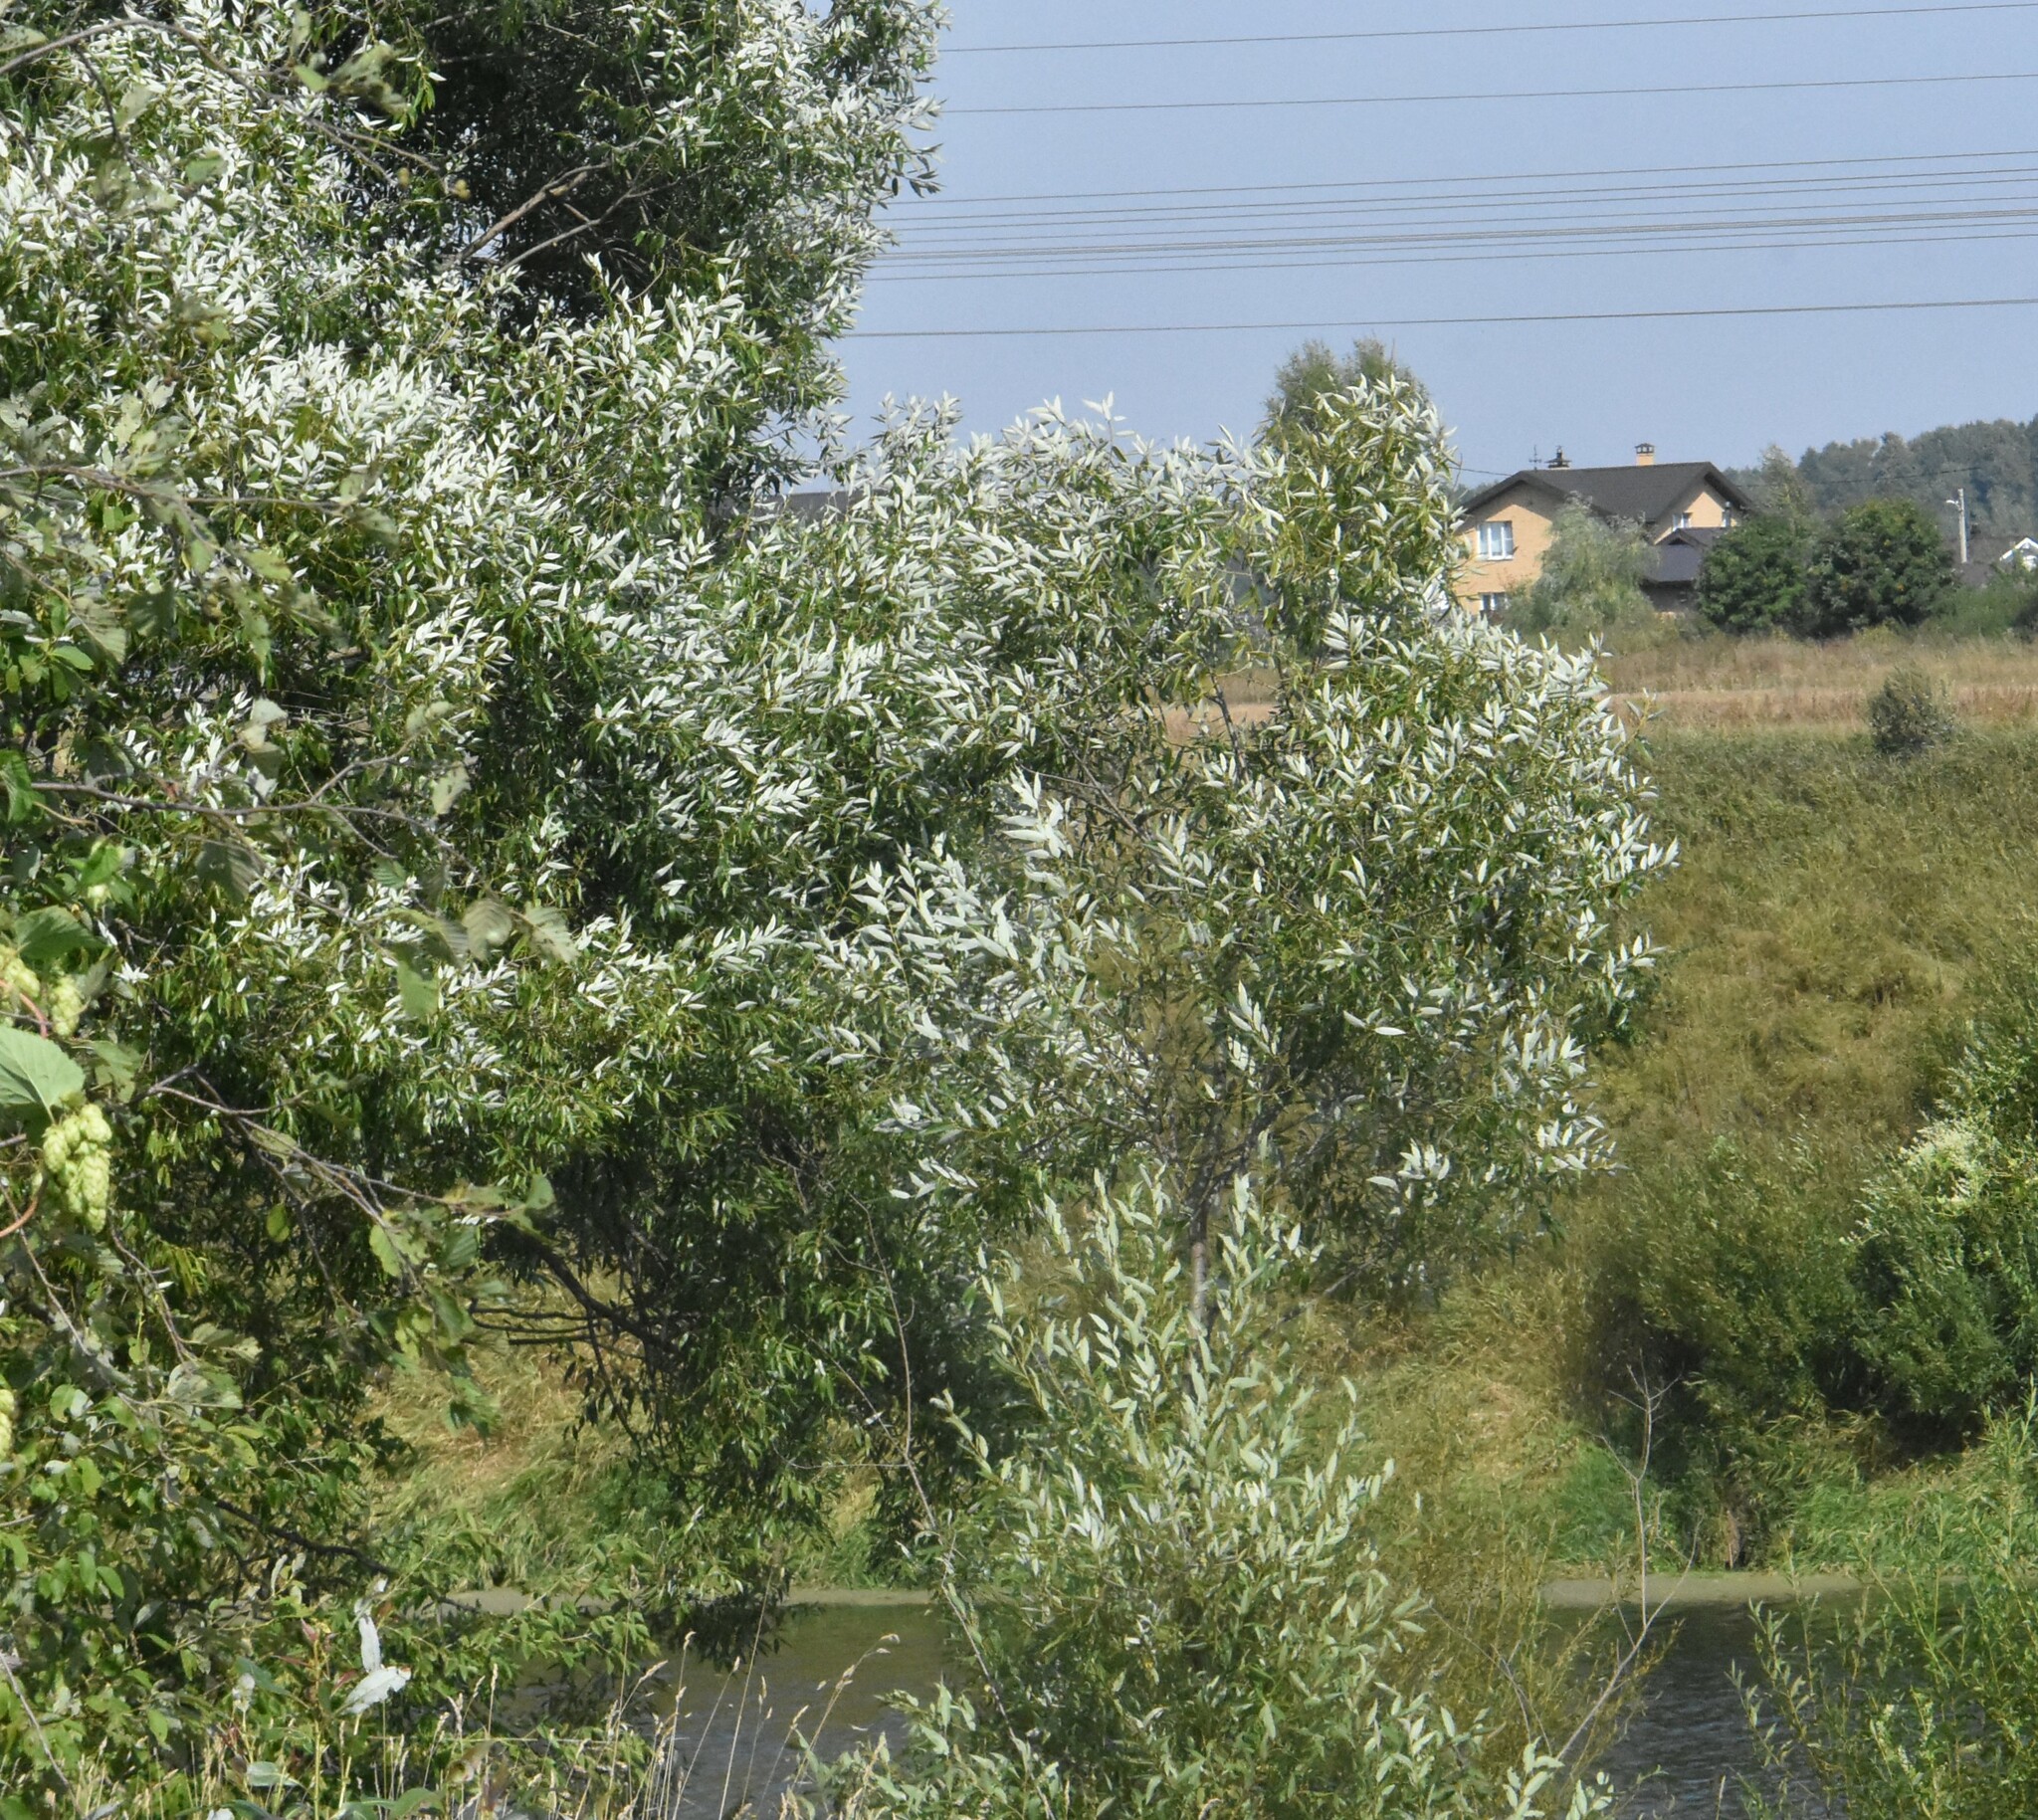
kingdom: Plantae
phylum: Tracheophyta
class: Magnoliopsida
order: Malpighiales
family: Salicaceae
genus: Salix
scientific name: Salix alba
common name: White willow
